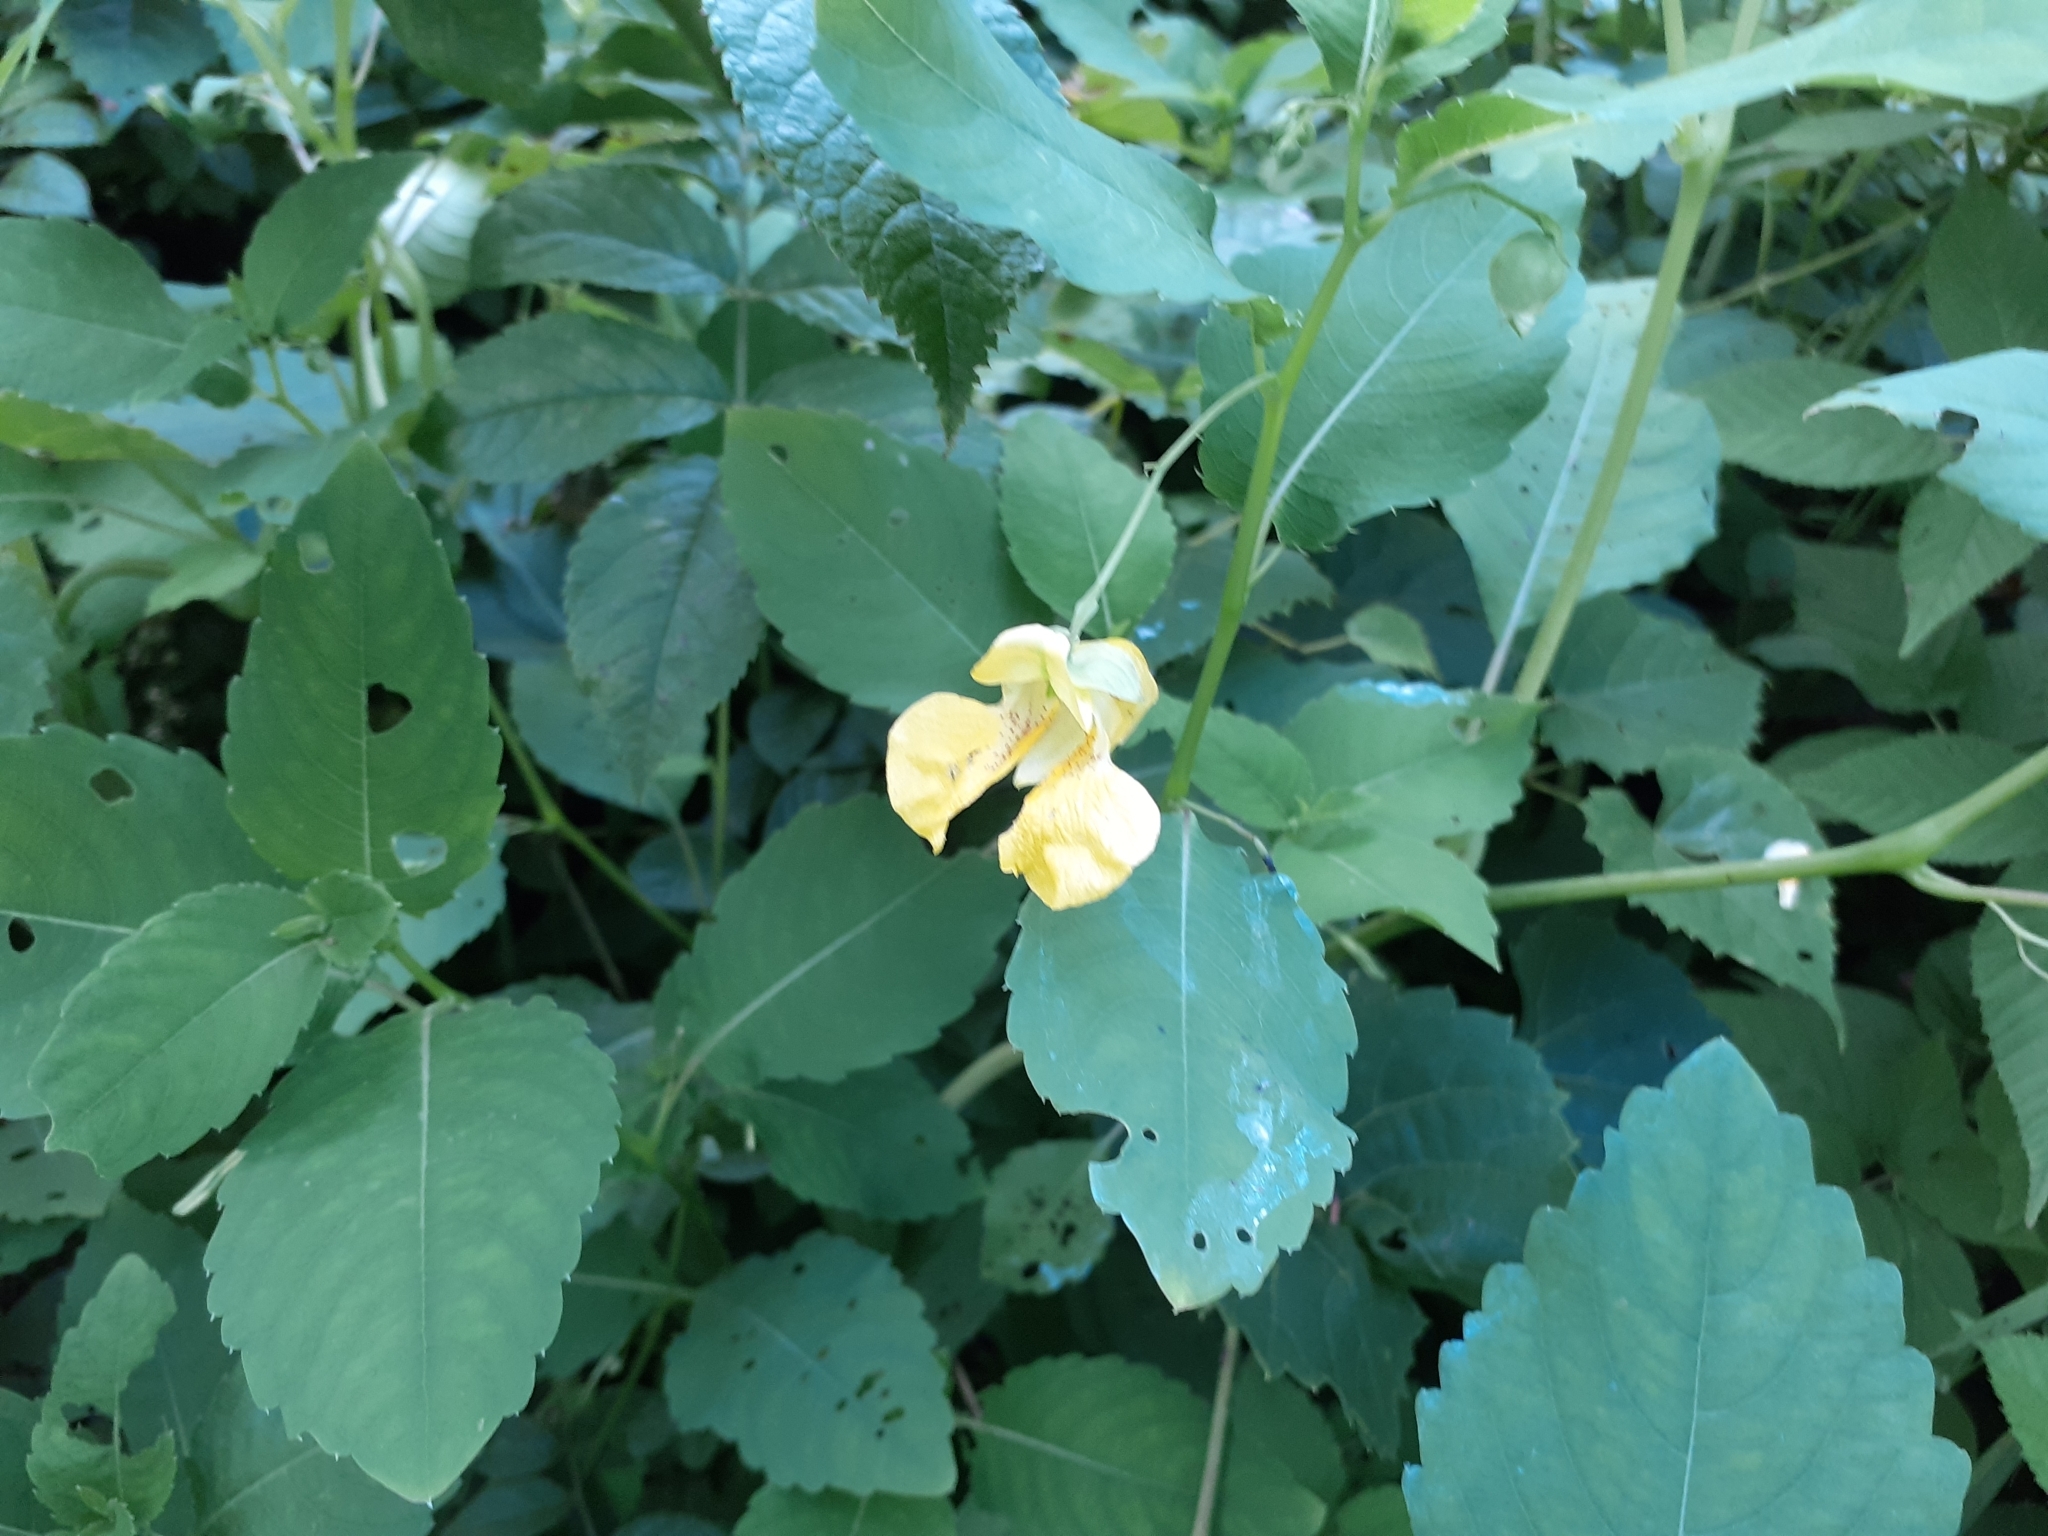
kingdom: Plantae
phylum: Tracheophyta
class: Magnoliopsida
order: Ericales
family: Balsaminaceae
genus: Impatiens
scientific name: Impatiens pallida
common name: Pale snapweed
